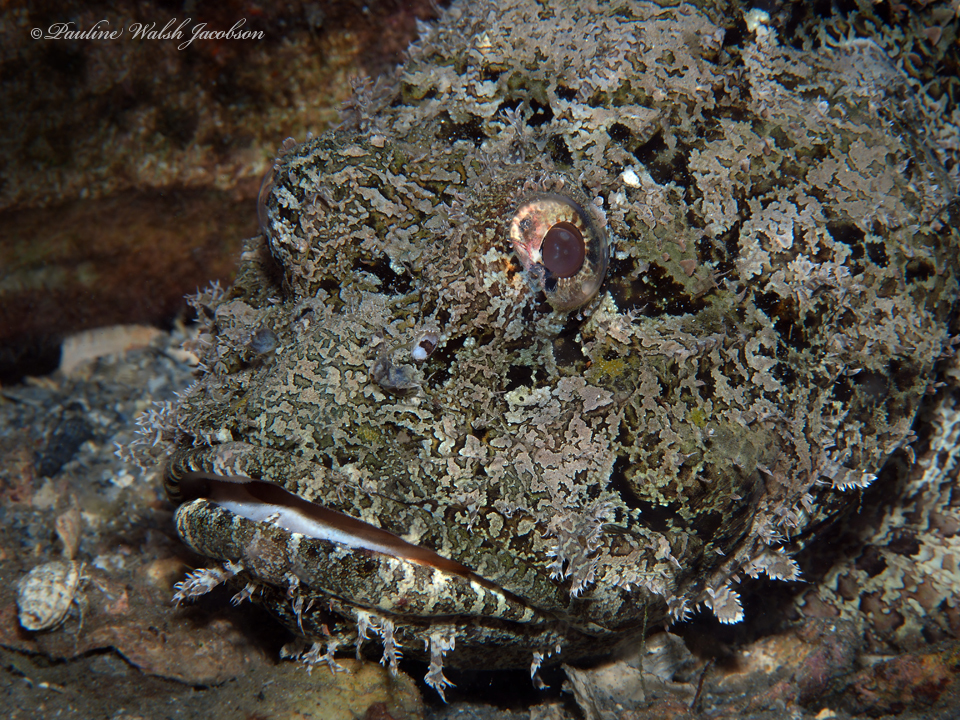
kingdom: Animalia
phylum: Chordata
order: Scorpaeniformes
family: Scorpaenidae
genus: Scorpaena
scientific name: Scorpaena plumieri
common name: Spotted scorpionfish
